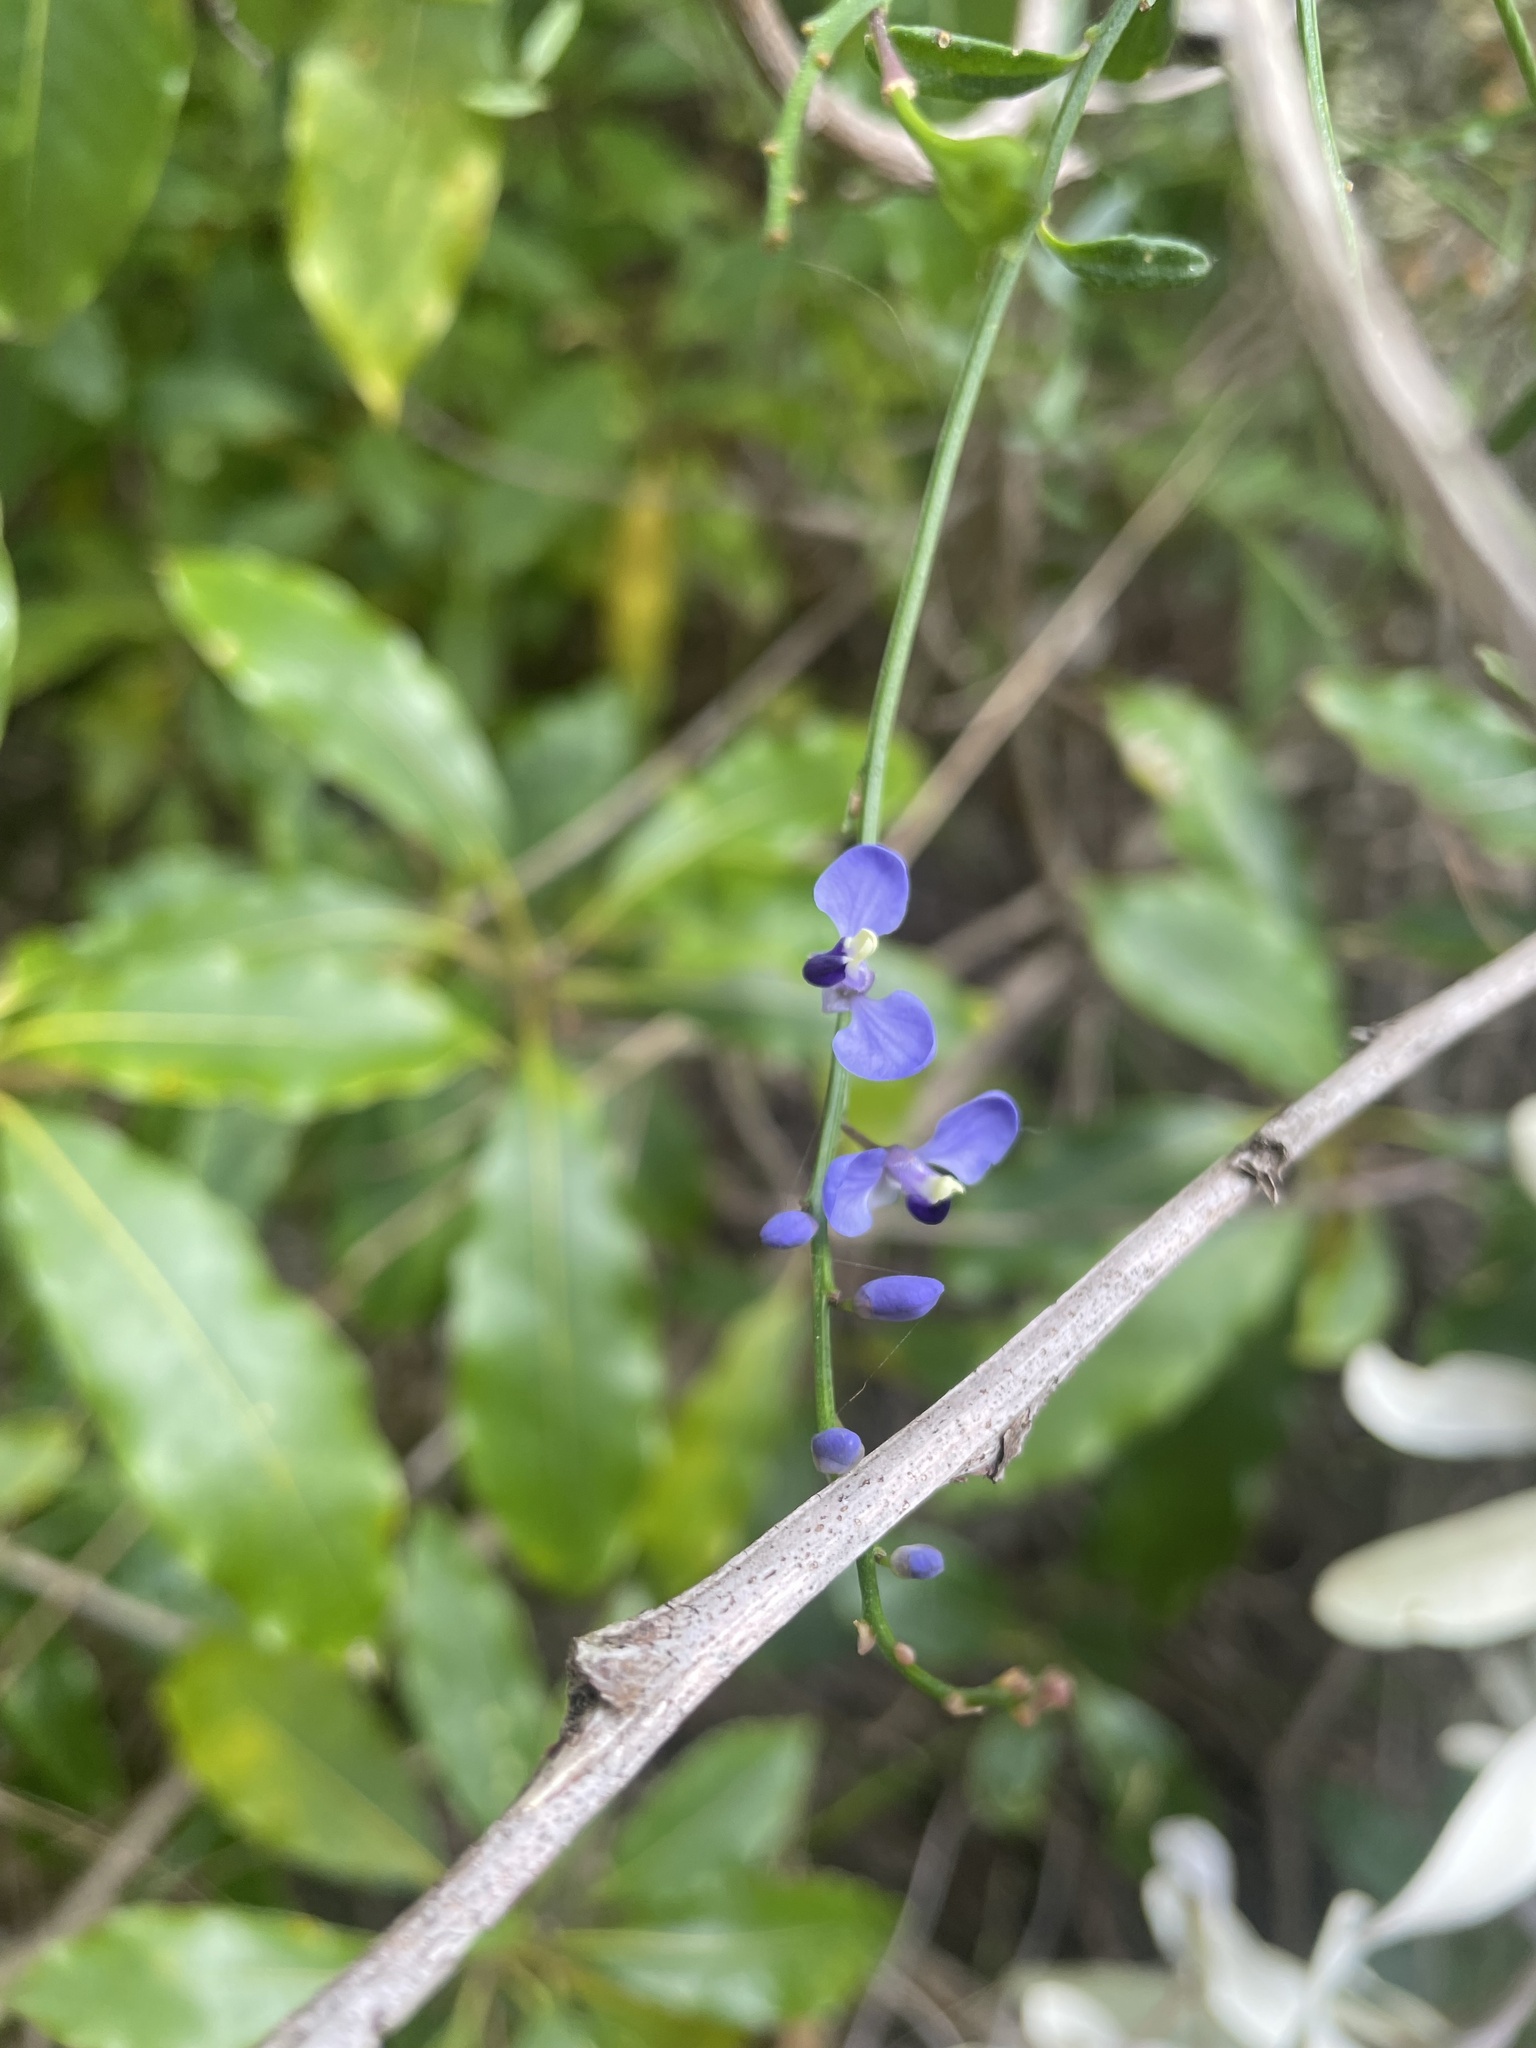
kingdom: Plantae
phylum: Tracheophyta
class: Magnoliopsida
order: Fabales
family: Polygalaceae
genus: Comesperma
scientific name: Comesperma volubile
